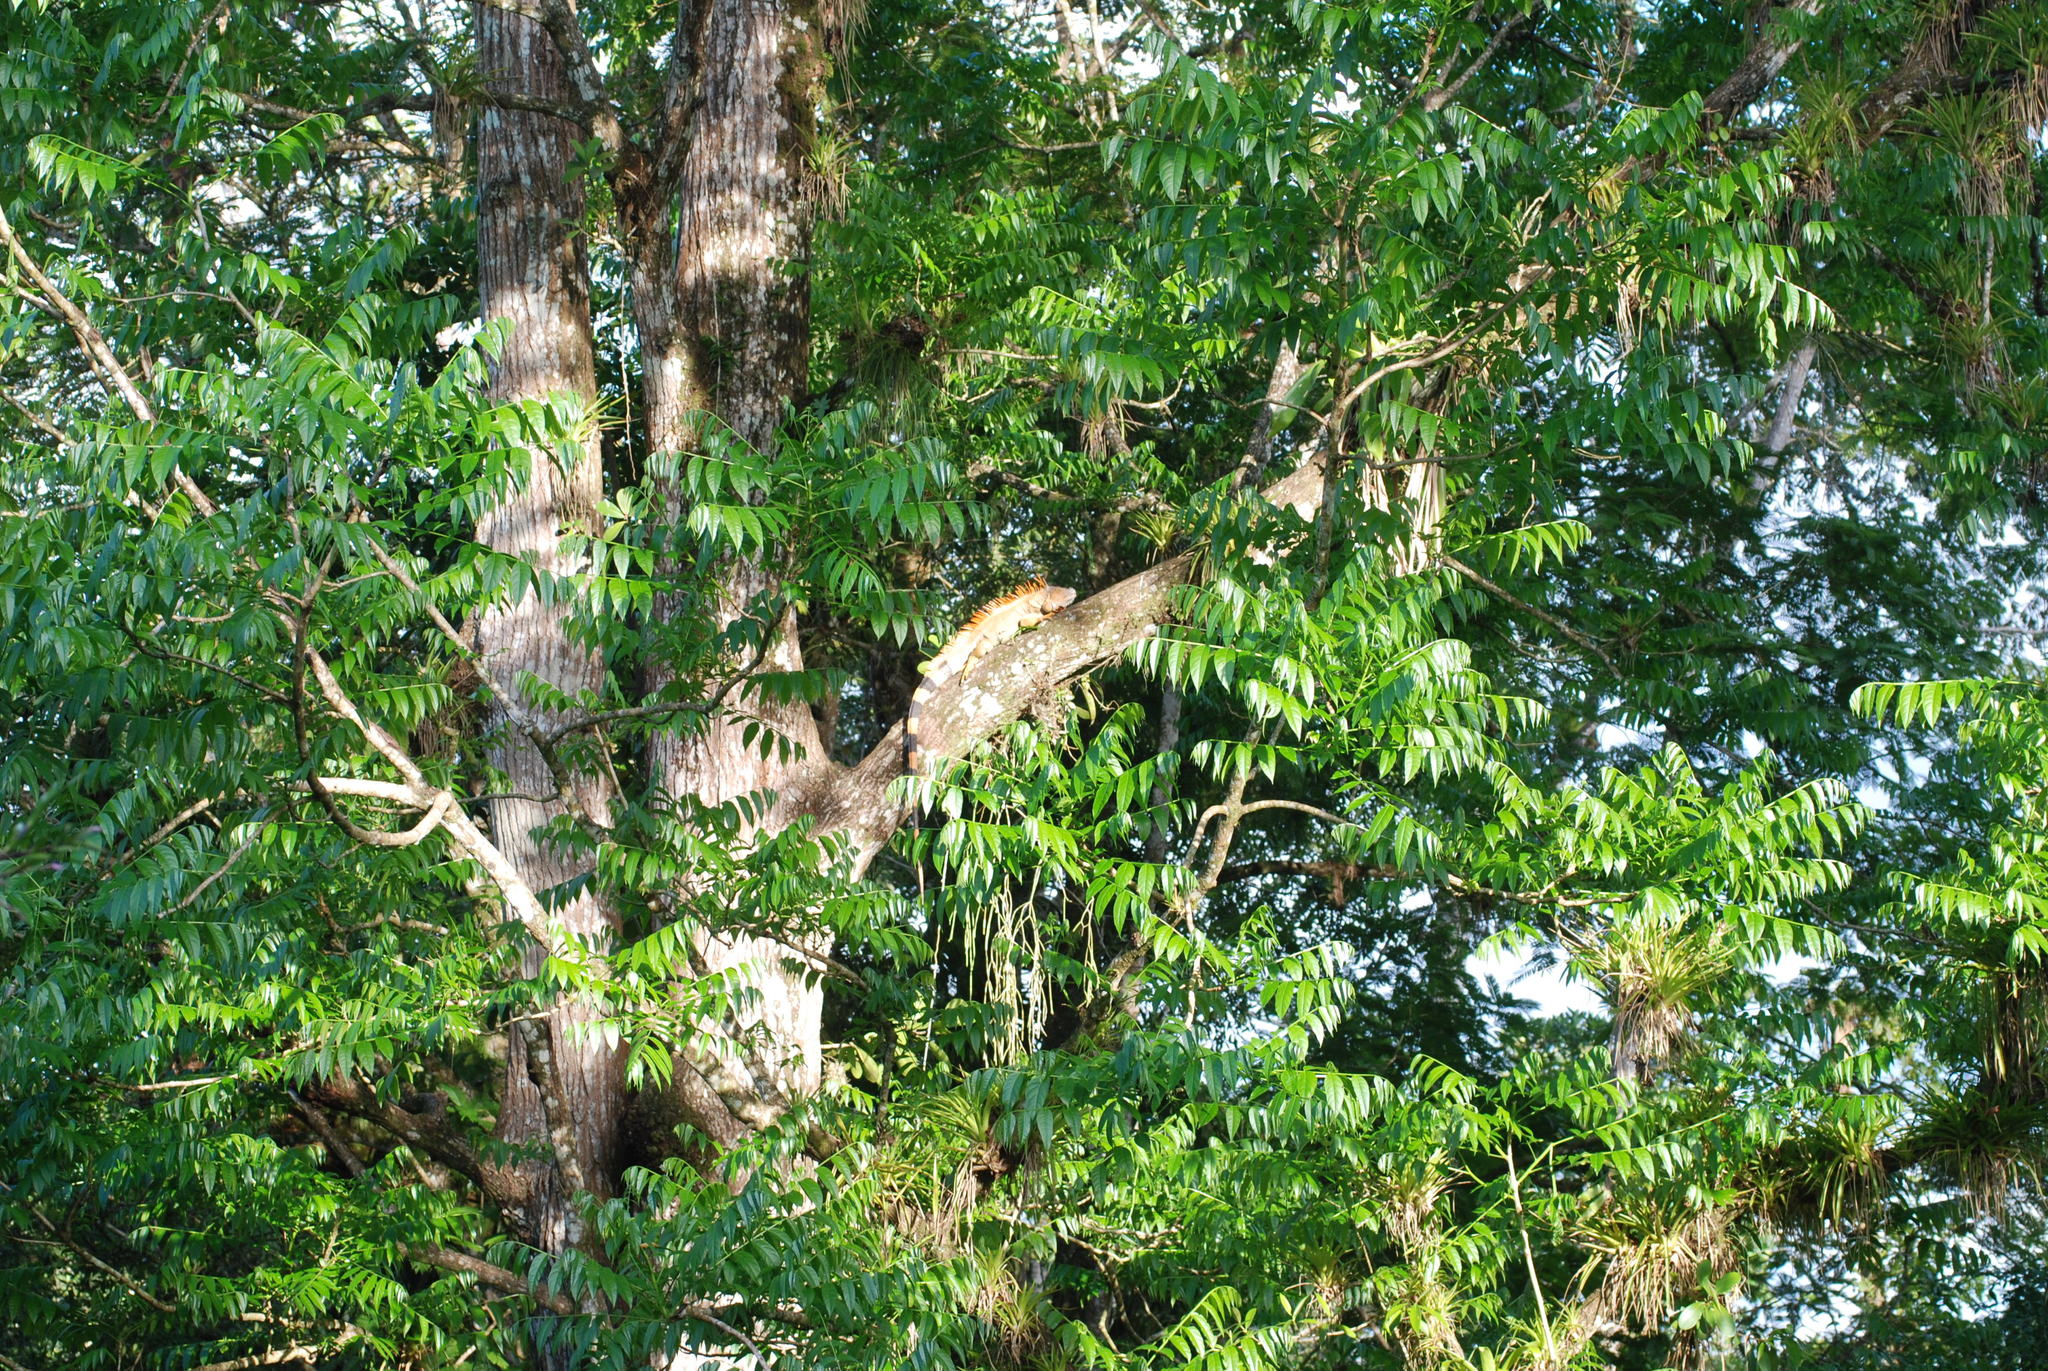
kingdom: Animalia
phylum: Chordata
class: Squamata
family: Iguanidae
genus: Iguana
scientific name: Iguana iguana
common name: Green iguana
